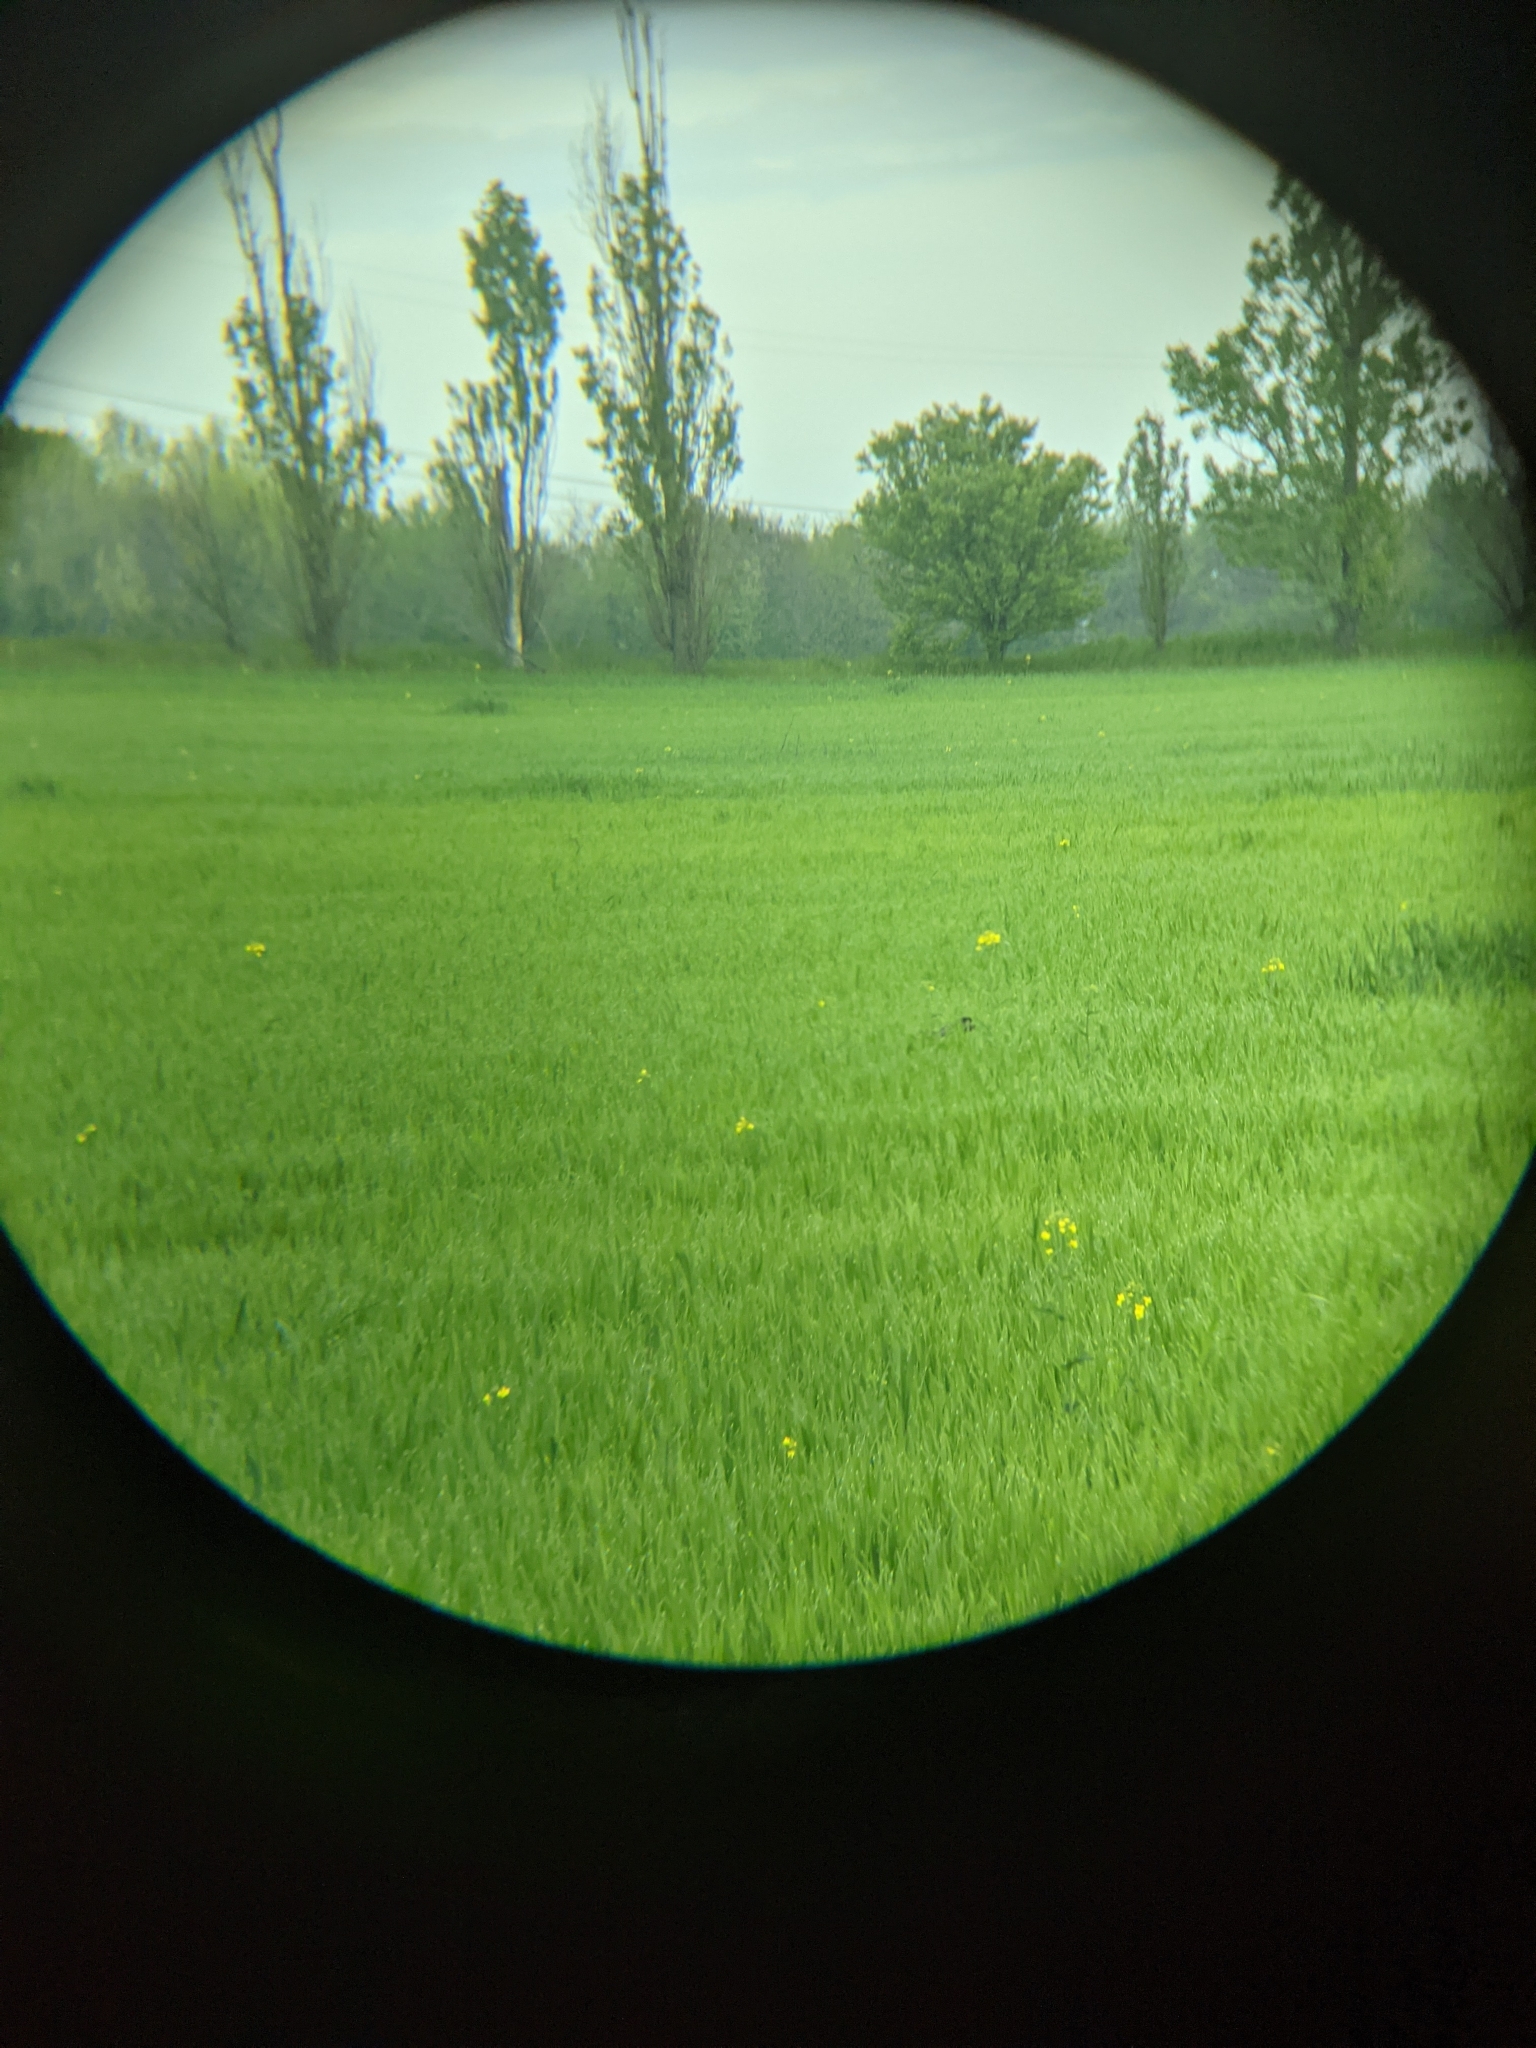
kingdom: Animalia
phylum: Chordata
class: Mammalia
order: Lagomorpha
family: Leporidae
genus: Lepus
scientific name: Lepus europaeus
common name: European hare
